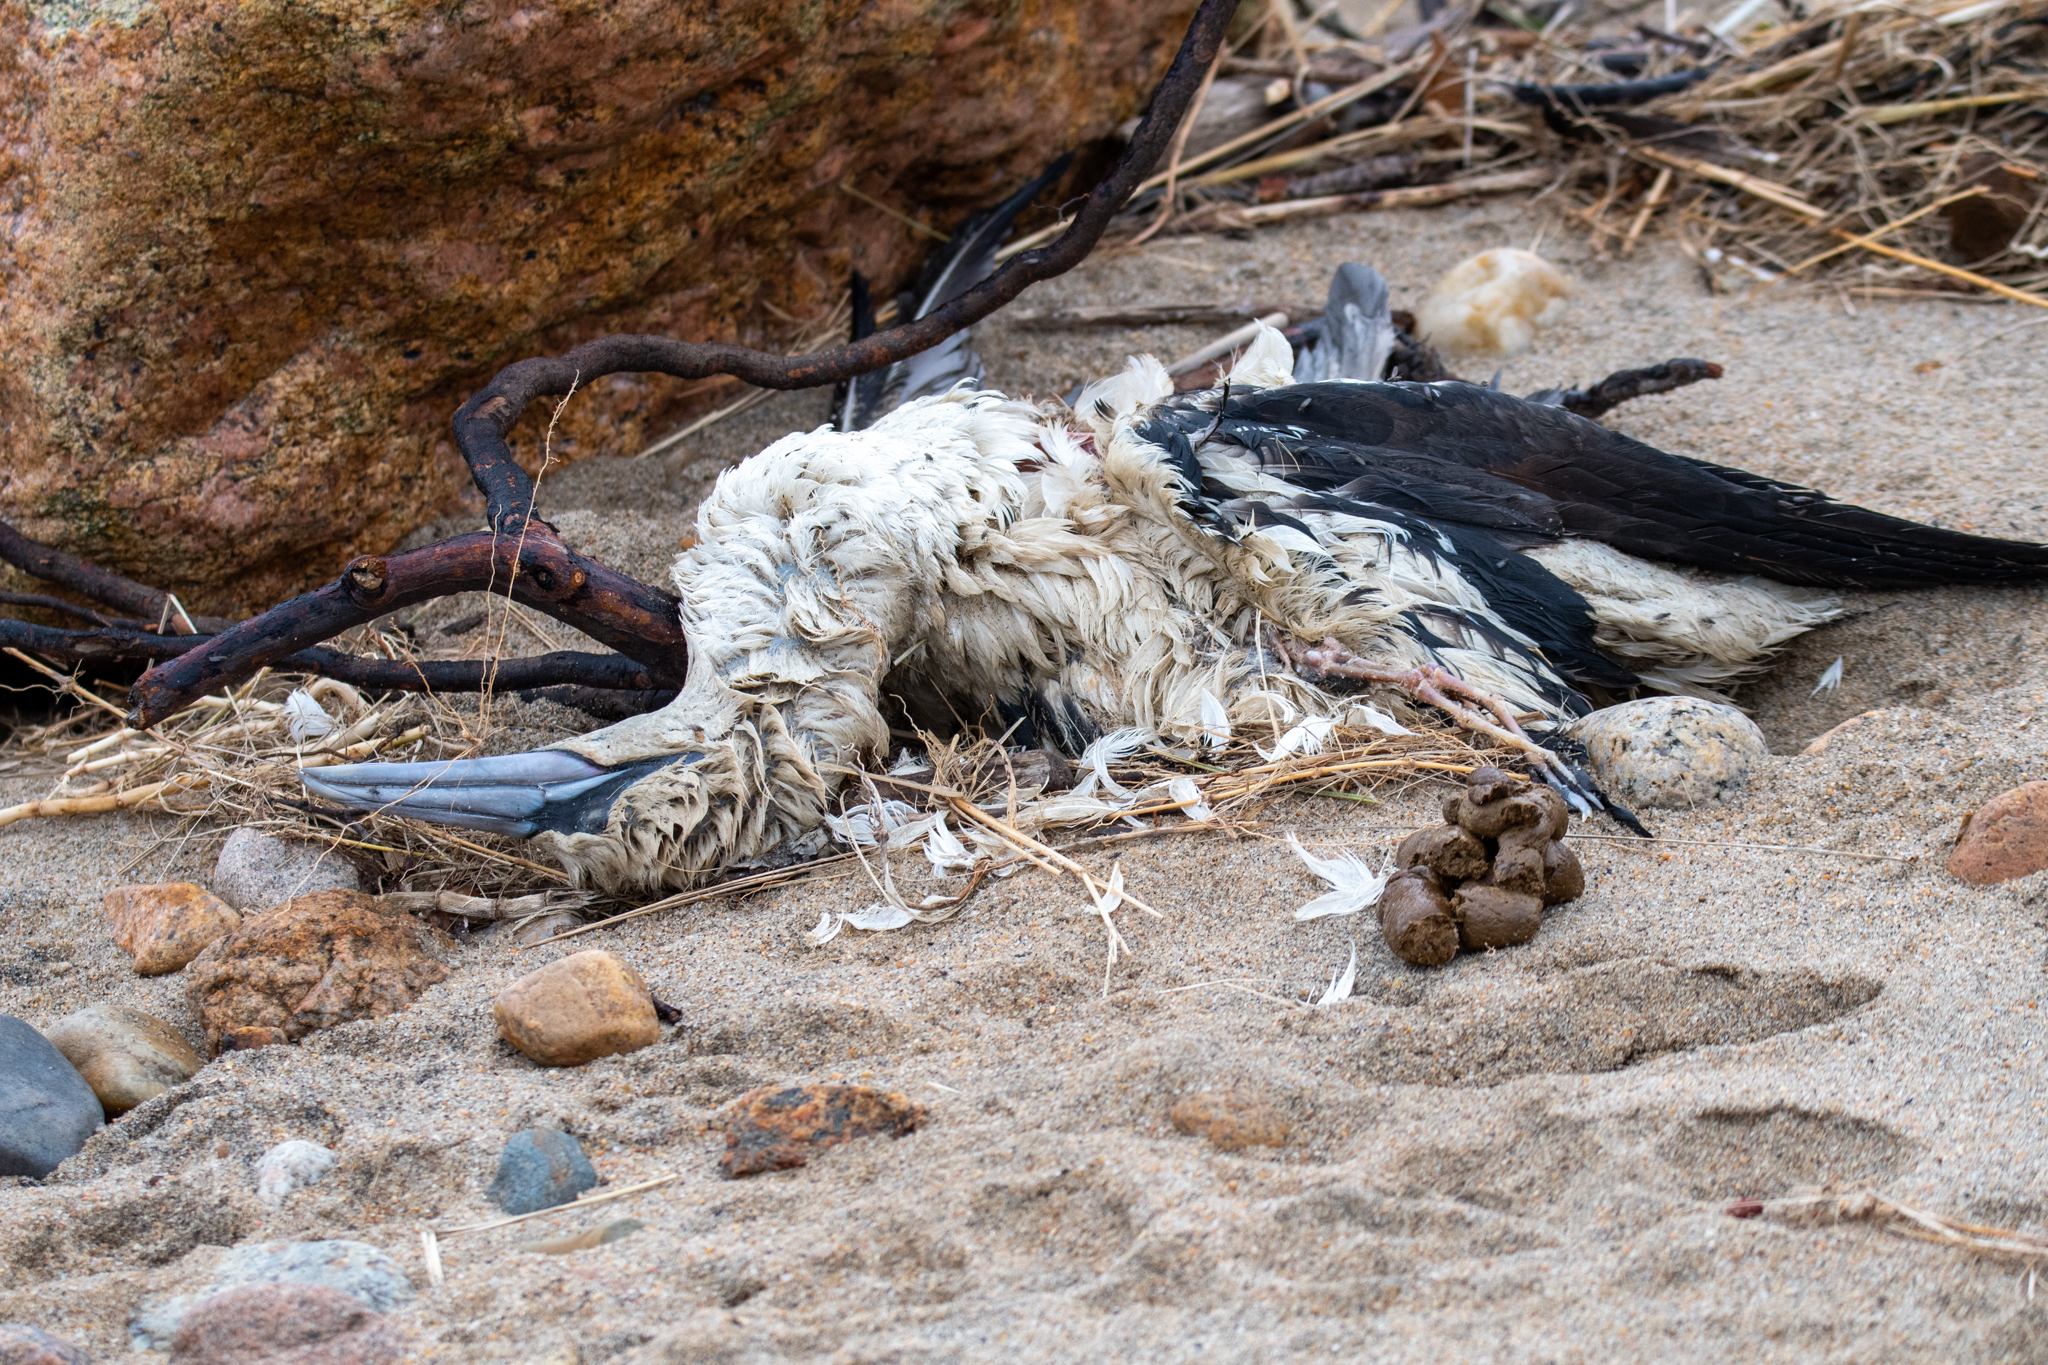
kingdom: Animalia
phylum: Chordata
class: Aves
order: Suliformes
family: Sulidae
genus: Morus
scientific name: Morus bassanus
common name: Northern gannet
